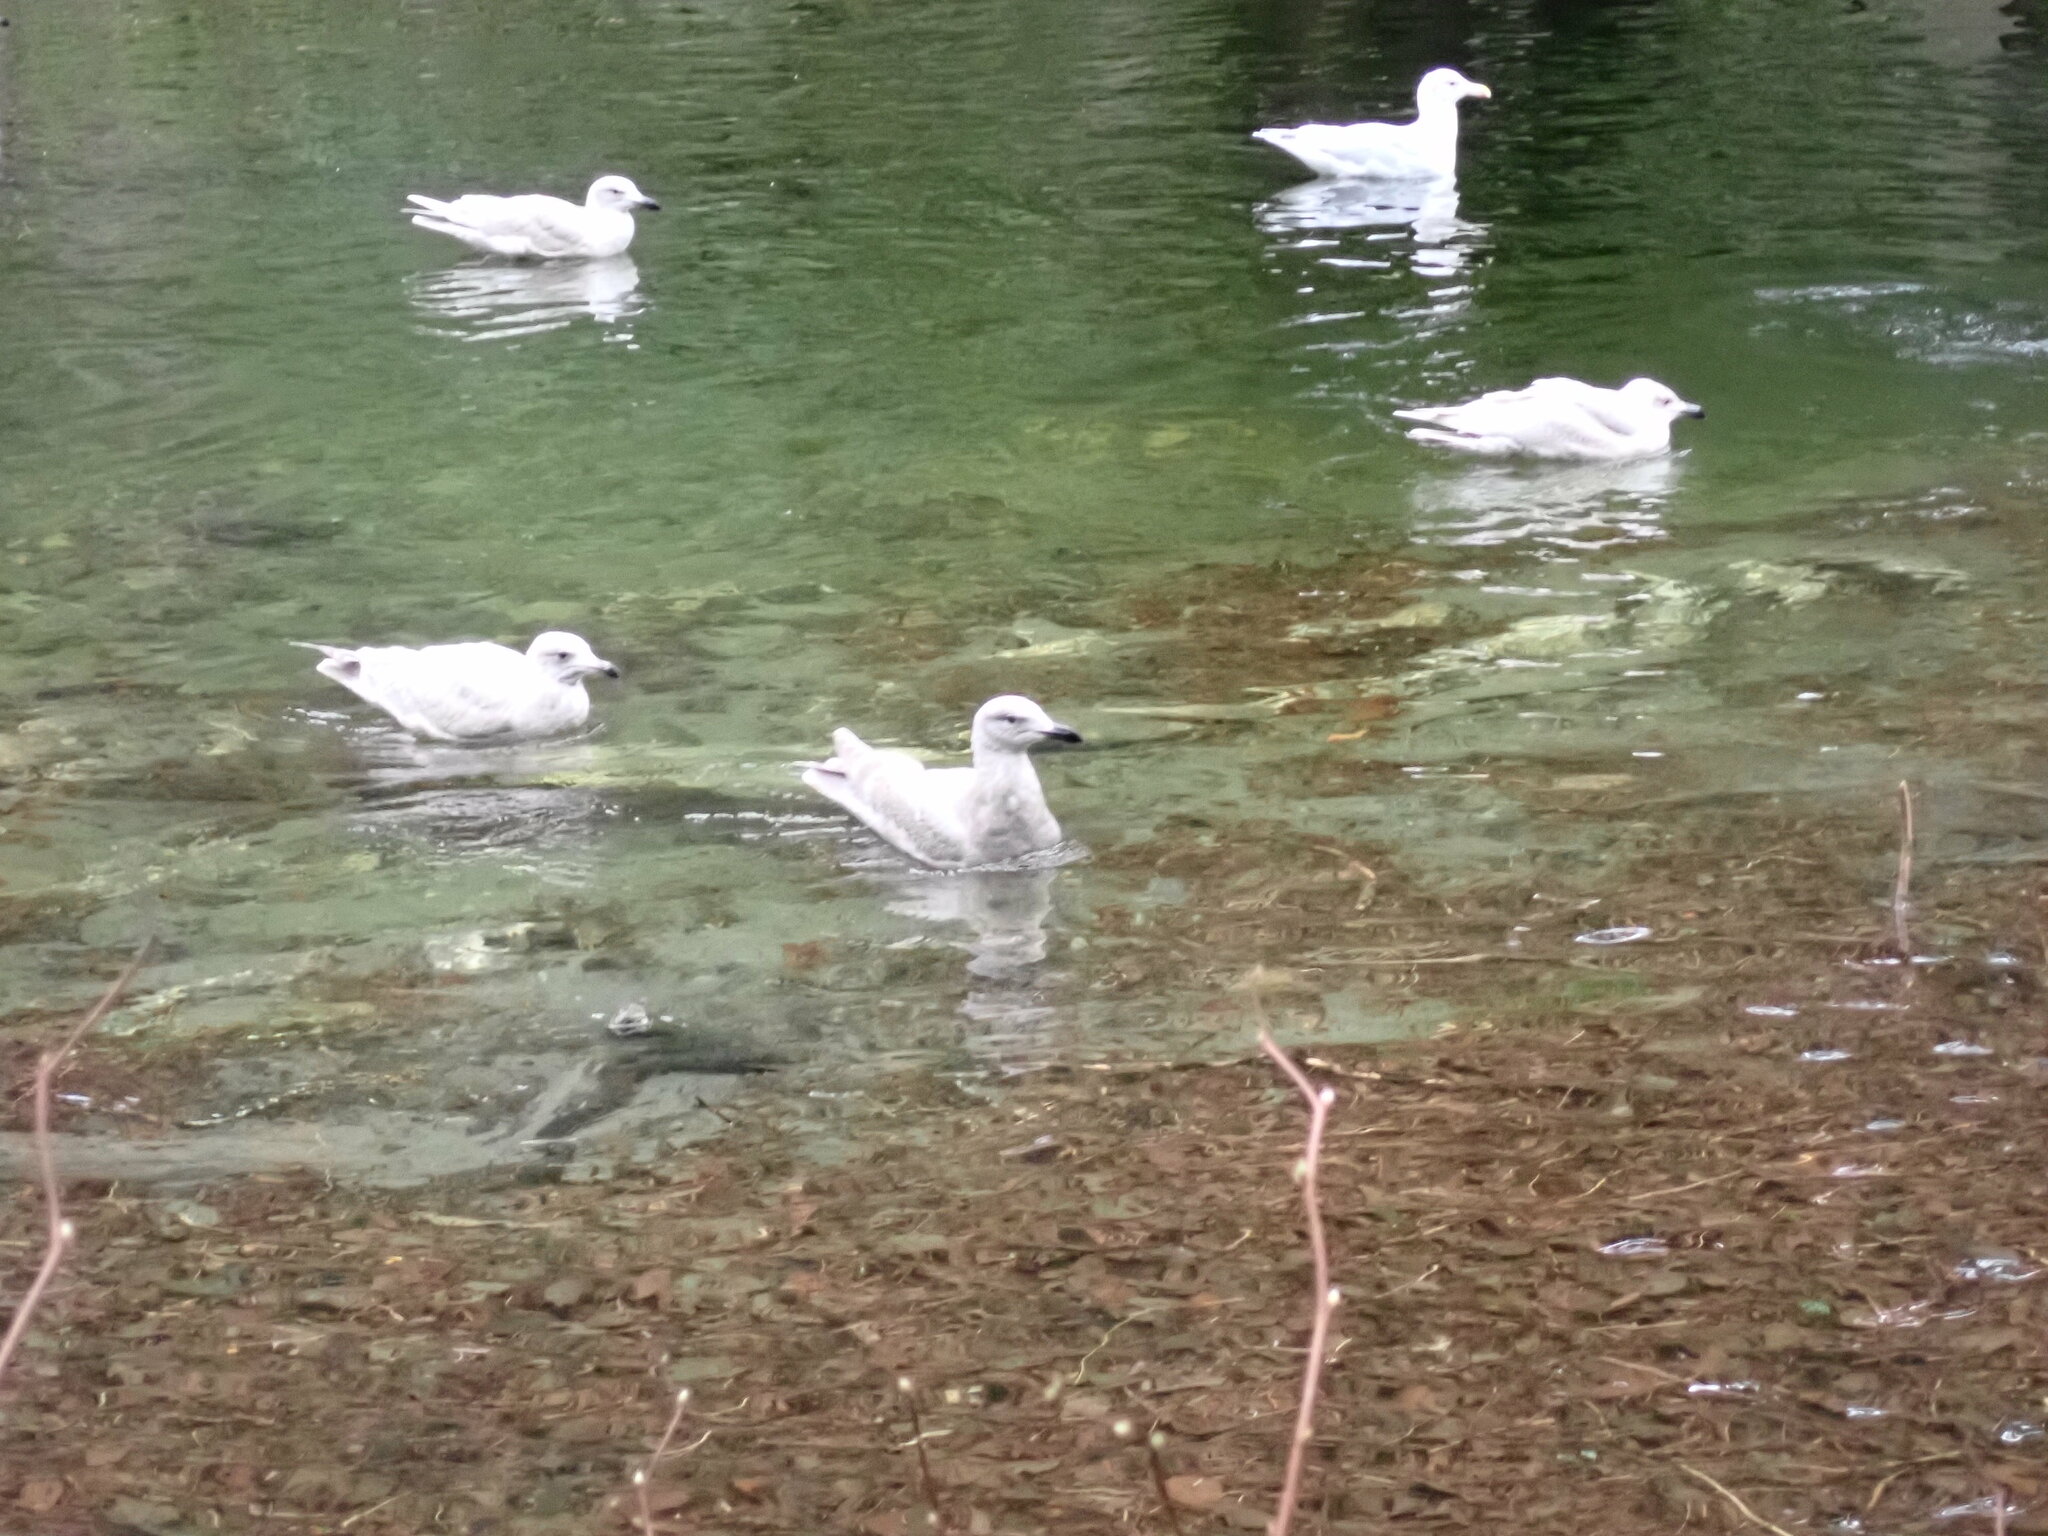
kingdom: Animalia
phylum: Chordata
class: Aves
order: Charadriiformes
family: Laridae
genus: Larus
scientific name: Larus glaucescens
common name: Glaucous-winged gull
